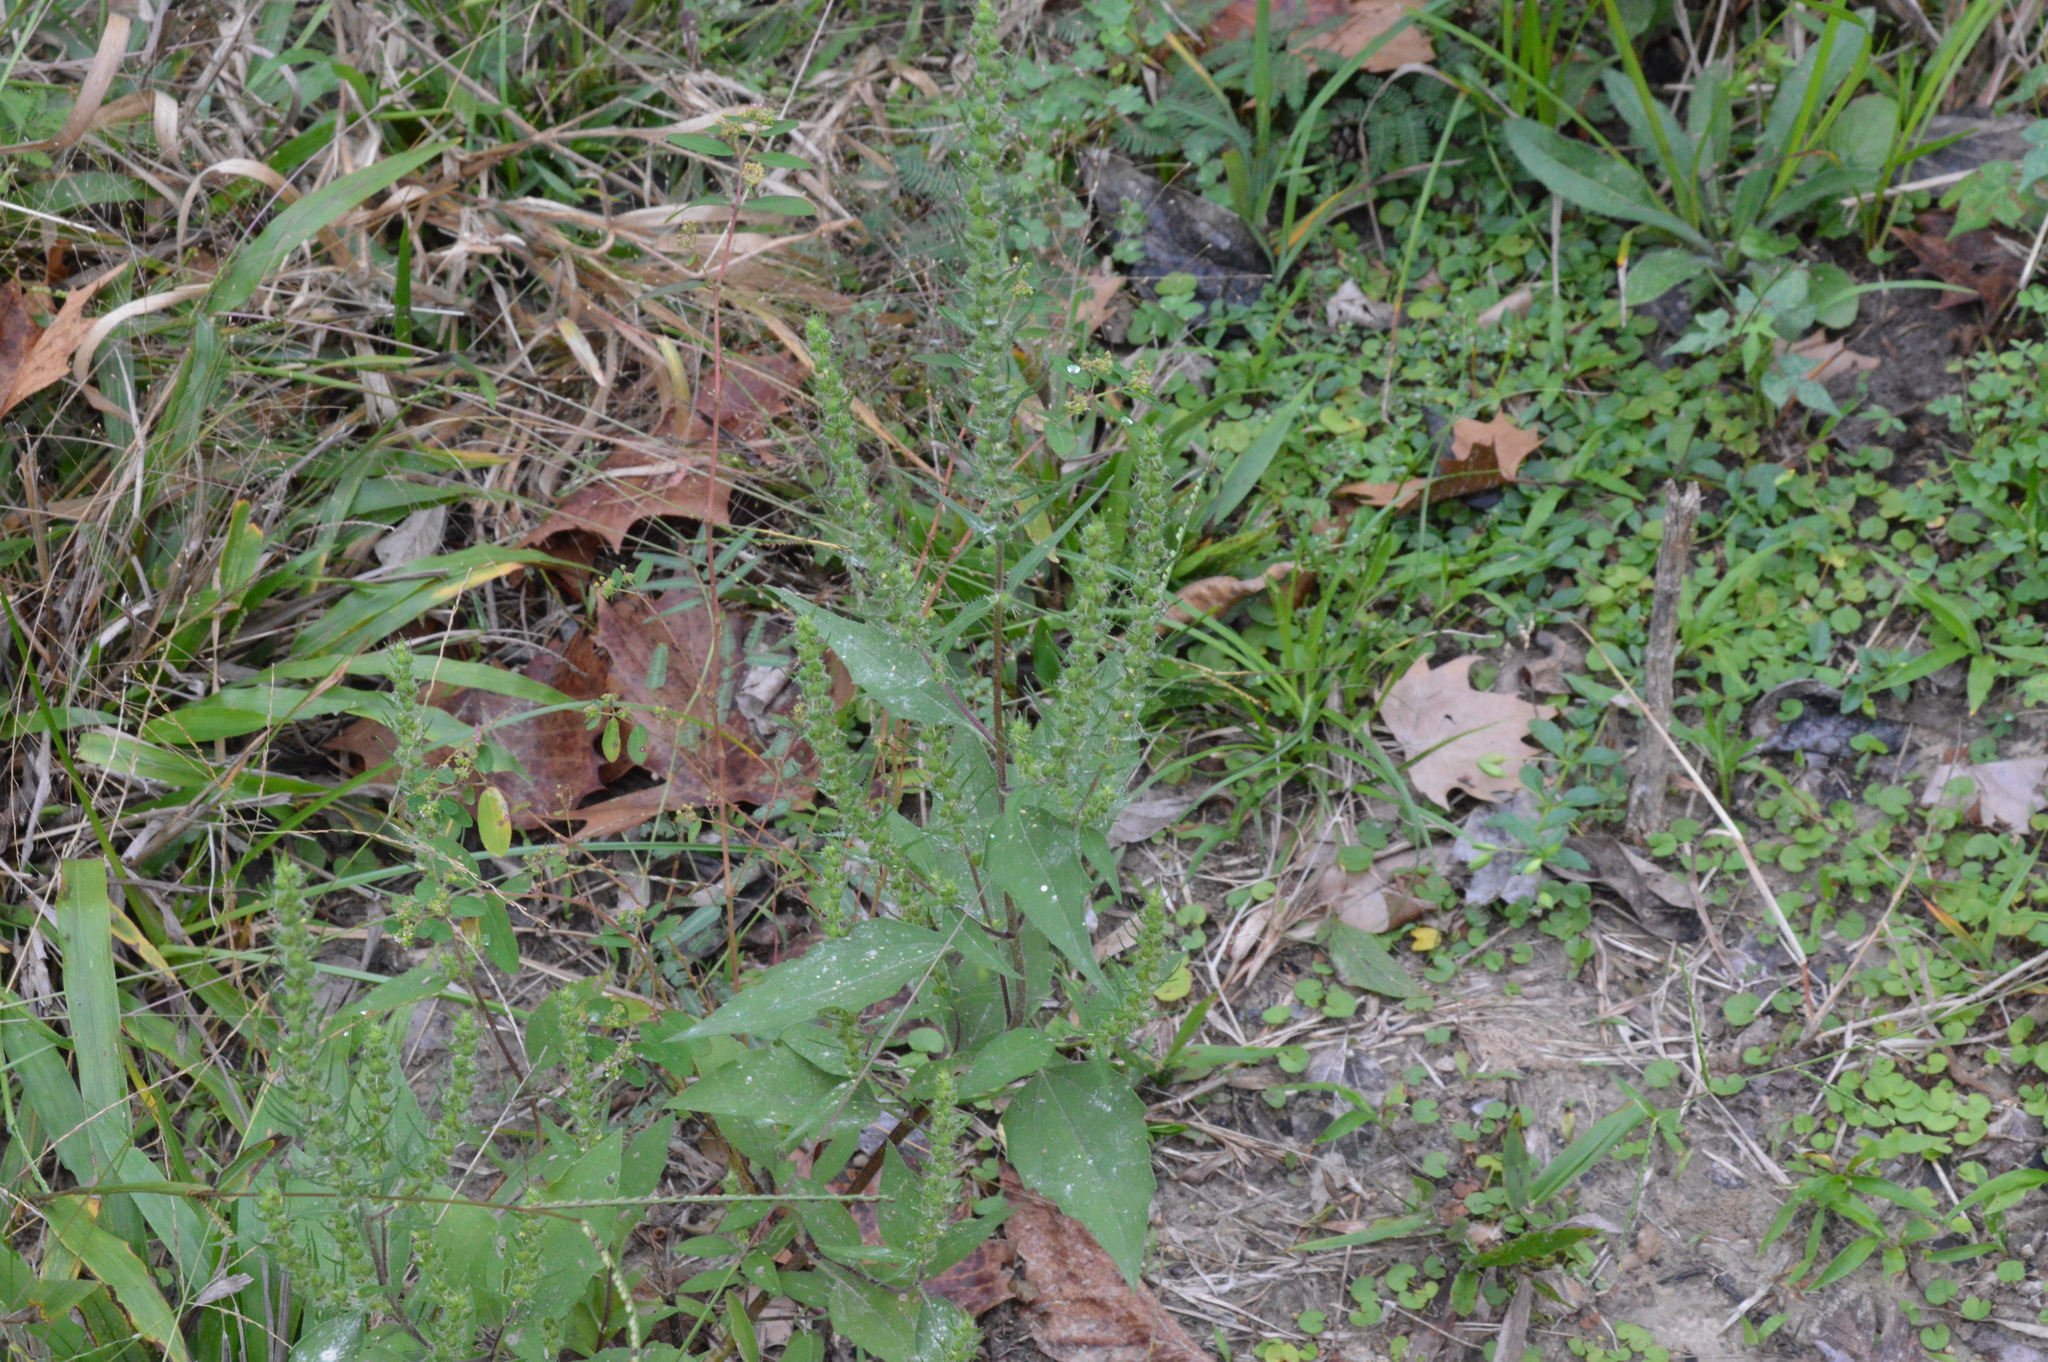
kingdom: Plantae
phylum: Tracheophyta
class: Magnoliopsida
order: Asterales
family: Asteraceae
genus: Iva
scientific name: Iva annua
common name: Marsh-elder
